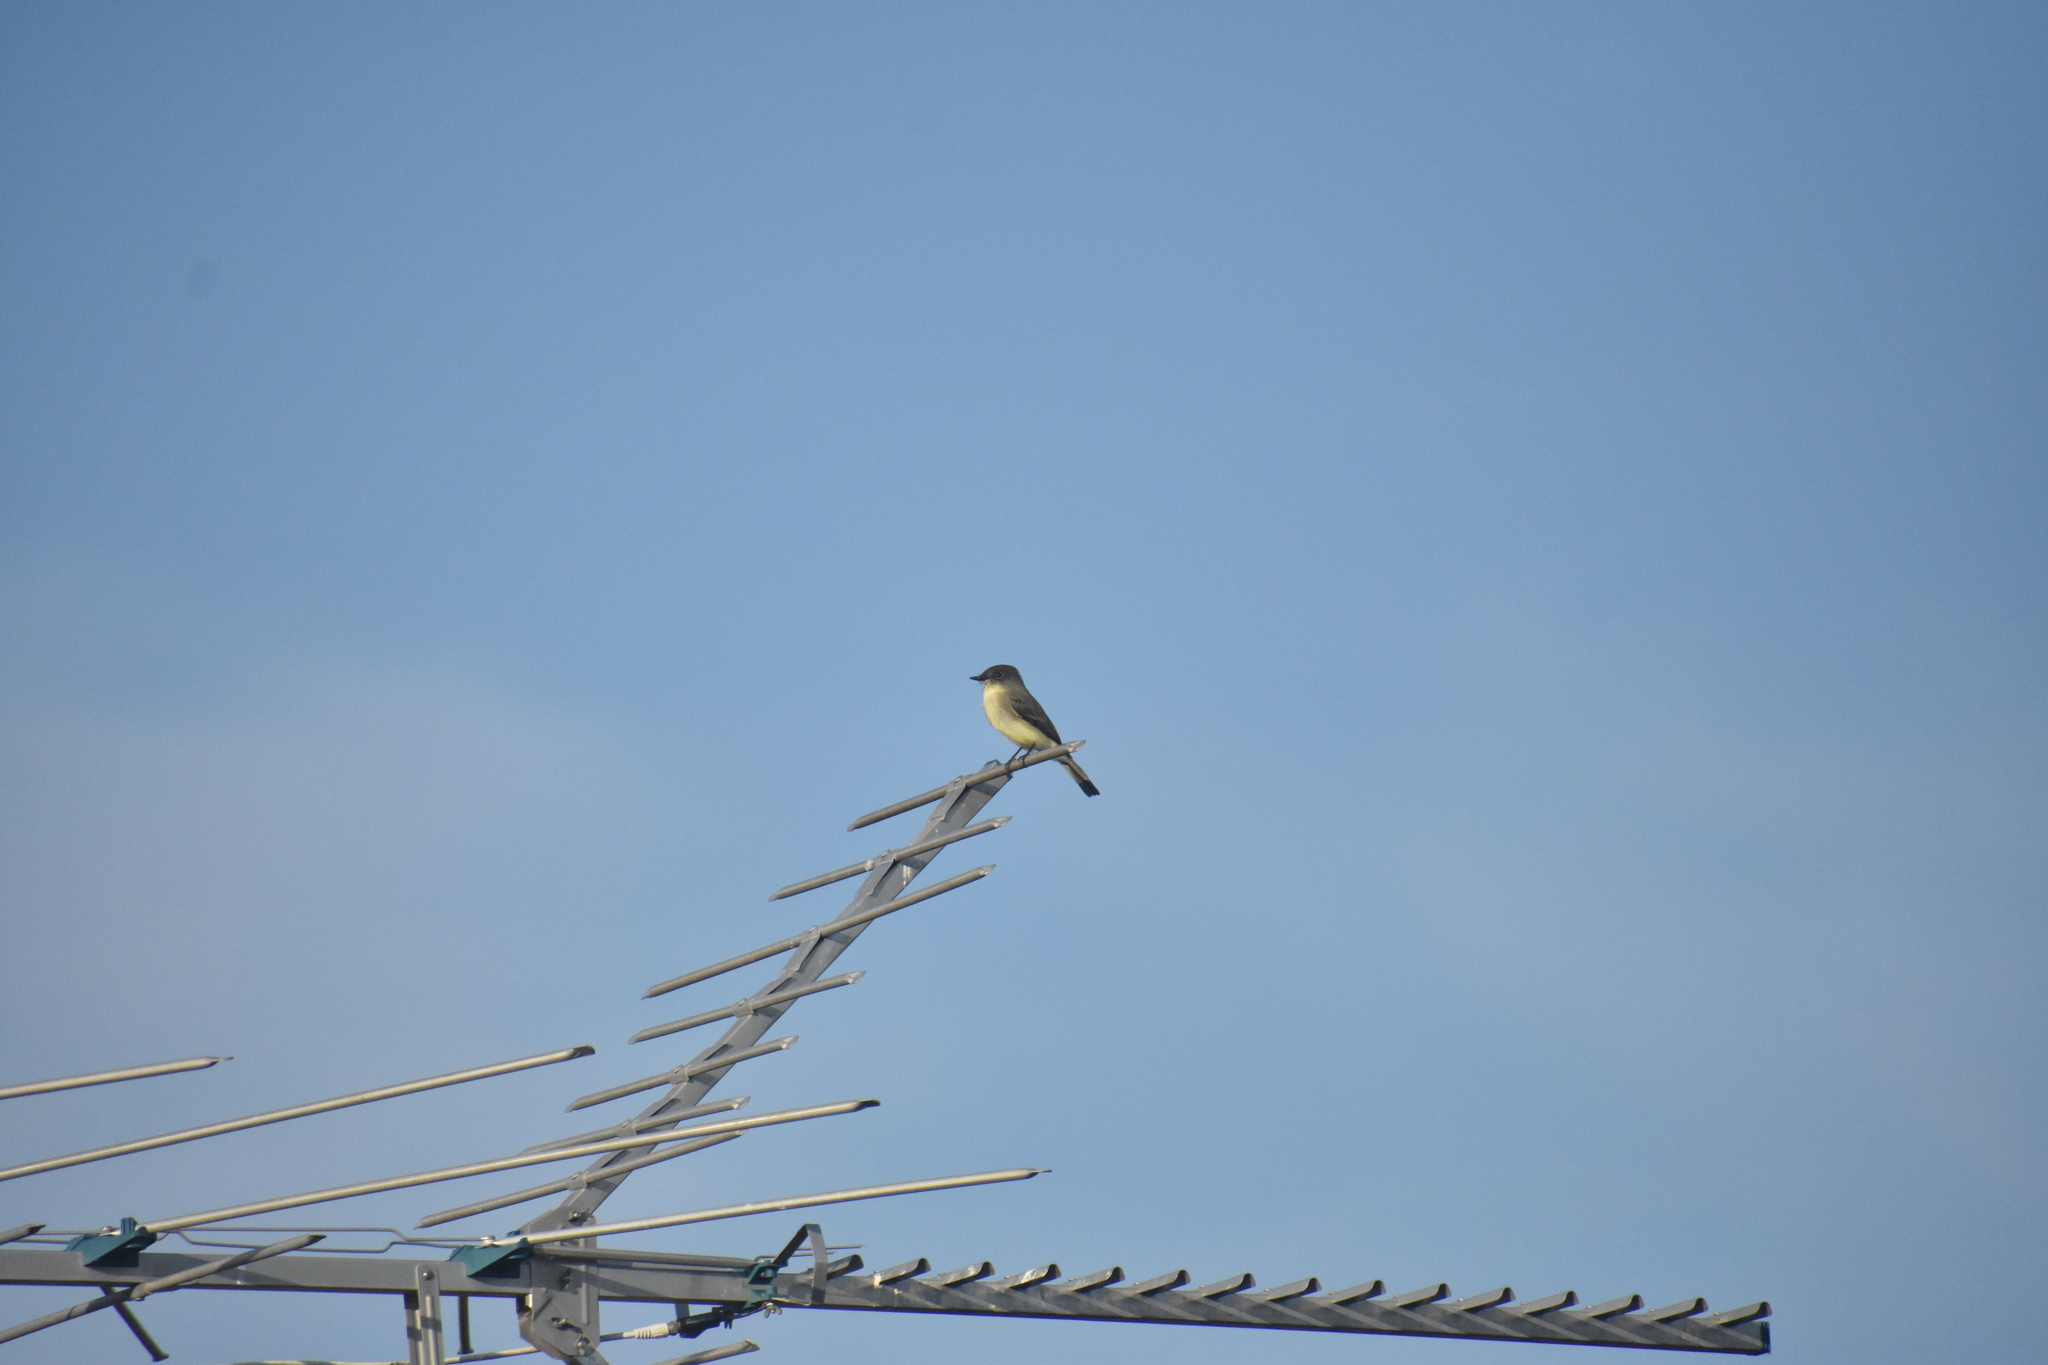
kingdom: Animalia
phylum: Chordata
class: Aves
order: Passeriformes
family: Tyrannidae
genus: Sayornis
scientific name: Sayornis phoebe
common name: Eastern phoebe
